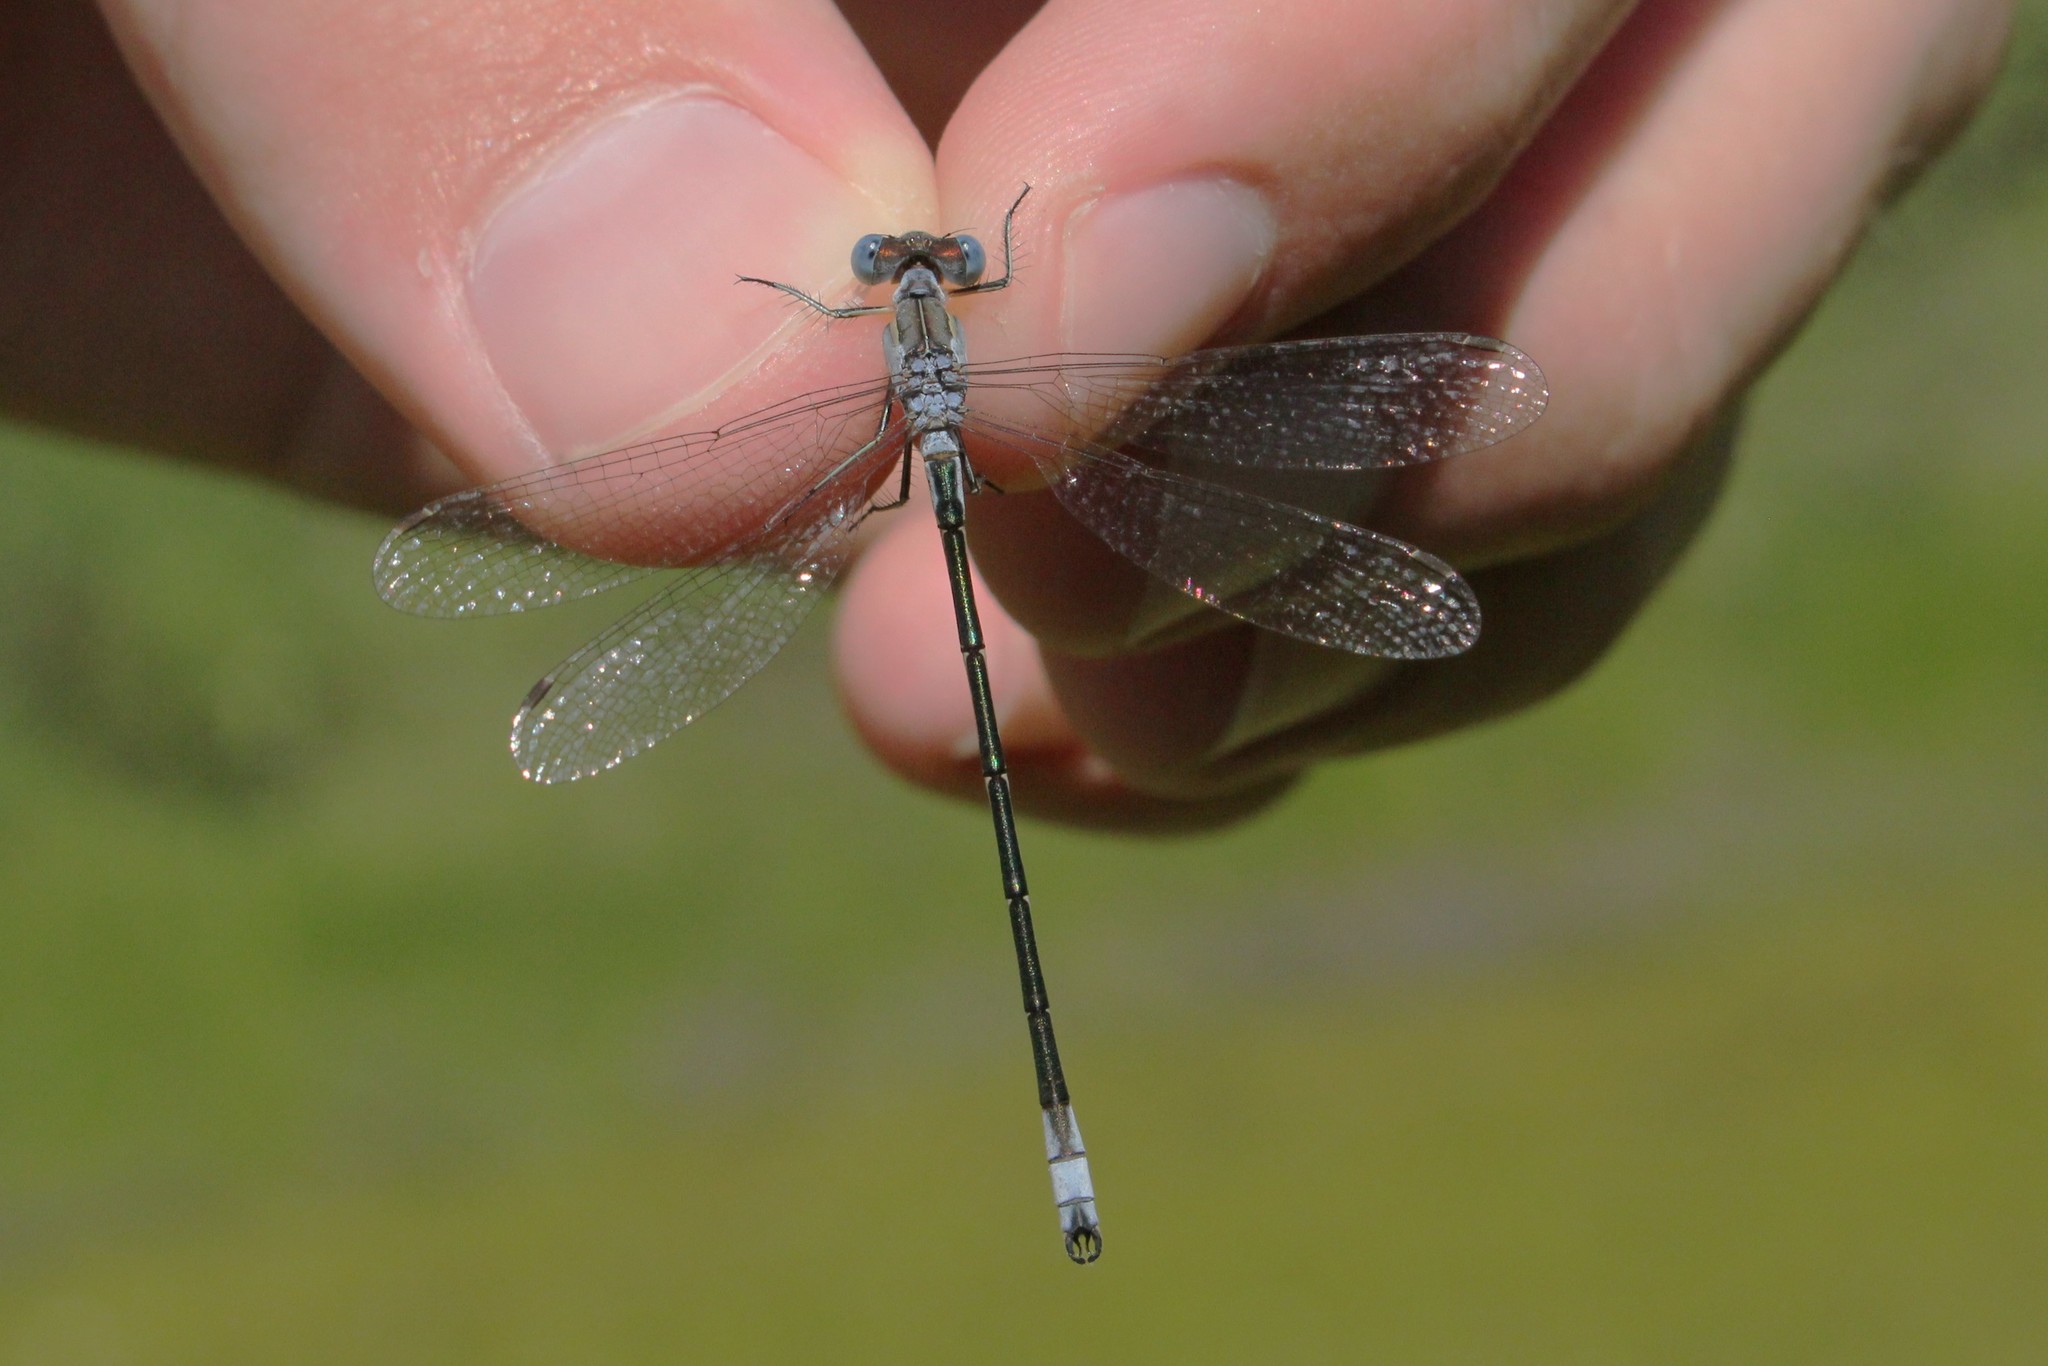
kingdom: Animalia
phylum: Arthropoda
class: Insecta
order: Odonata
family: Lestidae
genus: Lestes
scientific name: Lestes unguiculatus
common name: Lyre-tipped spreadwing
